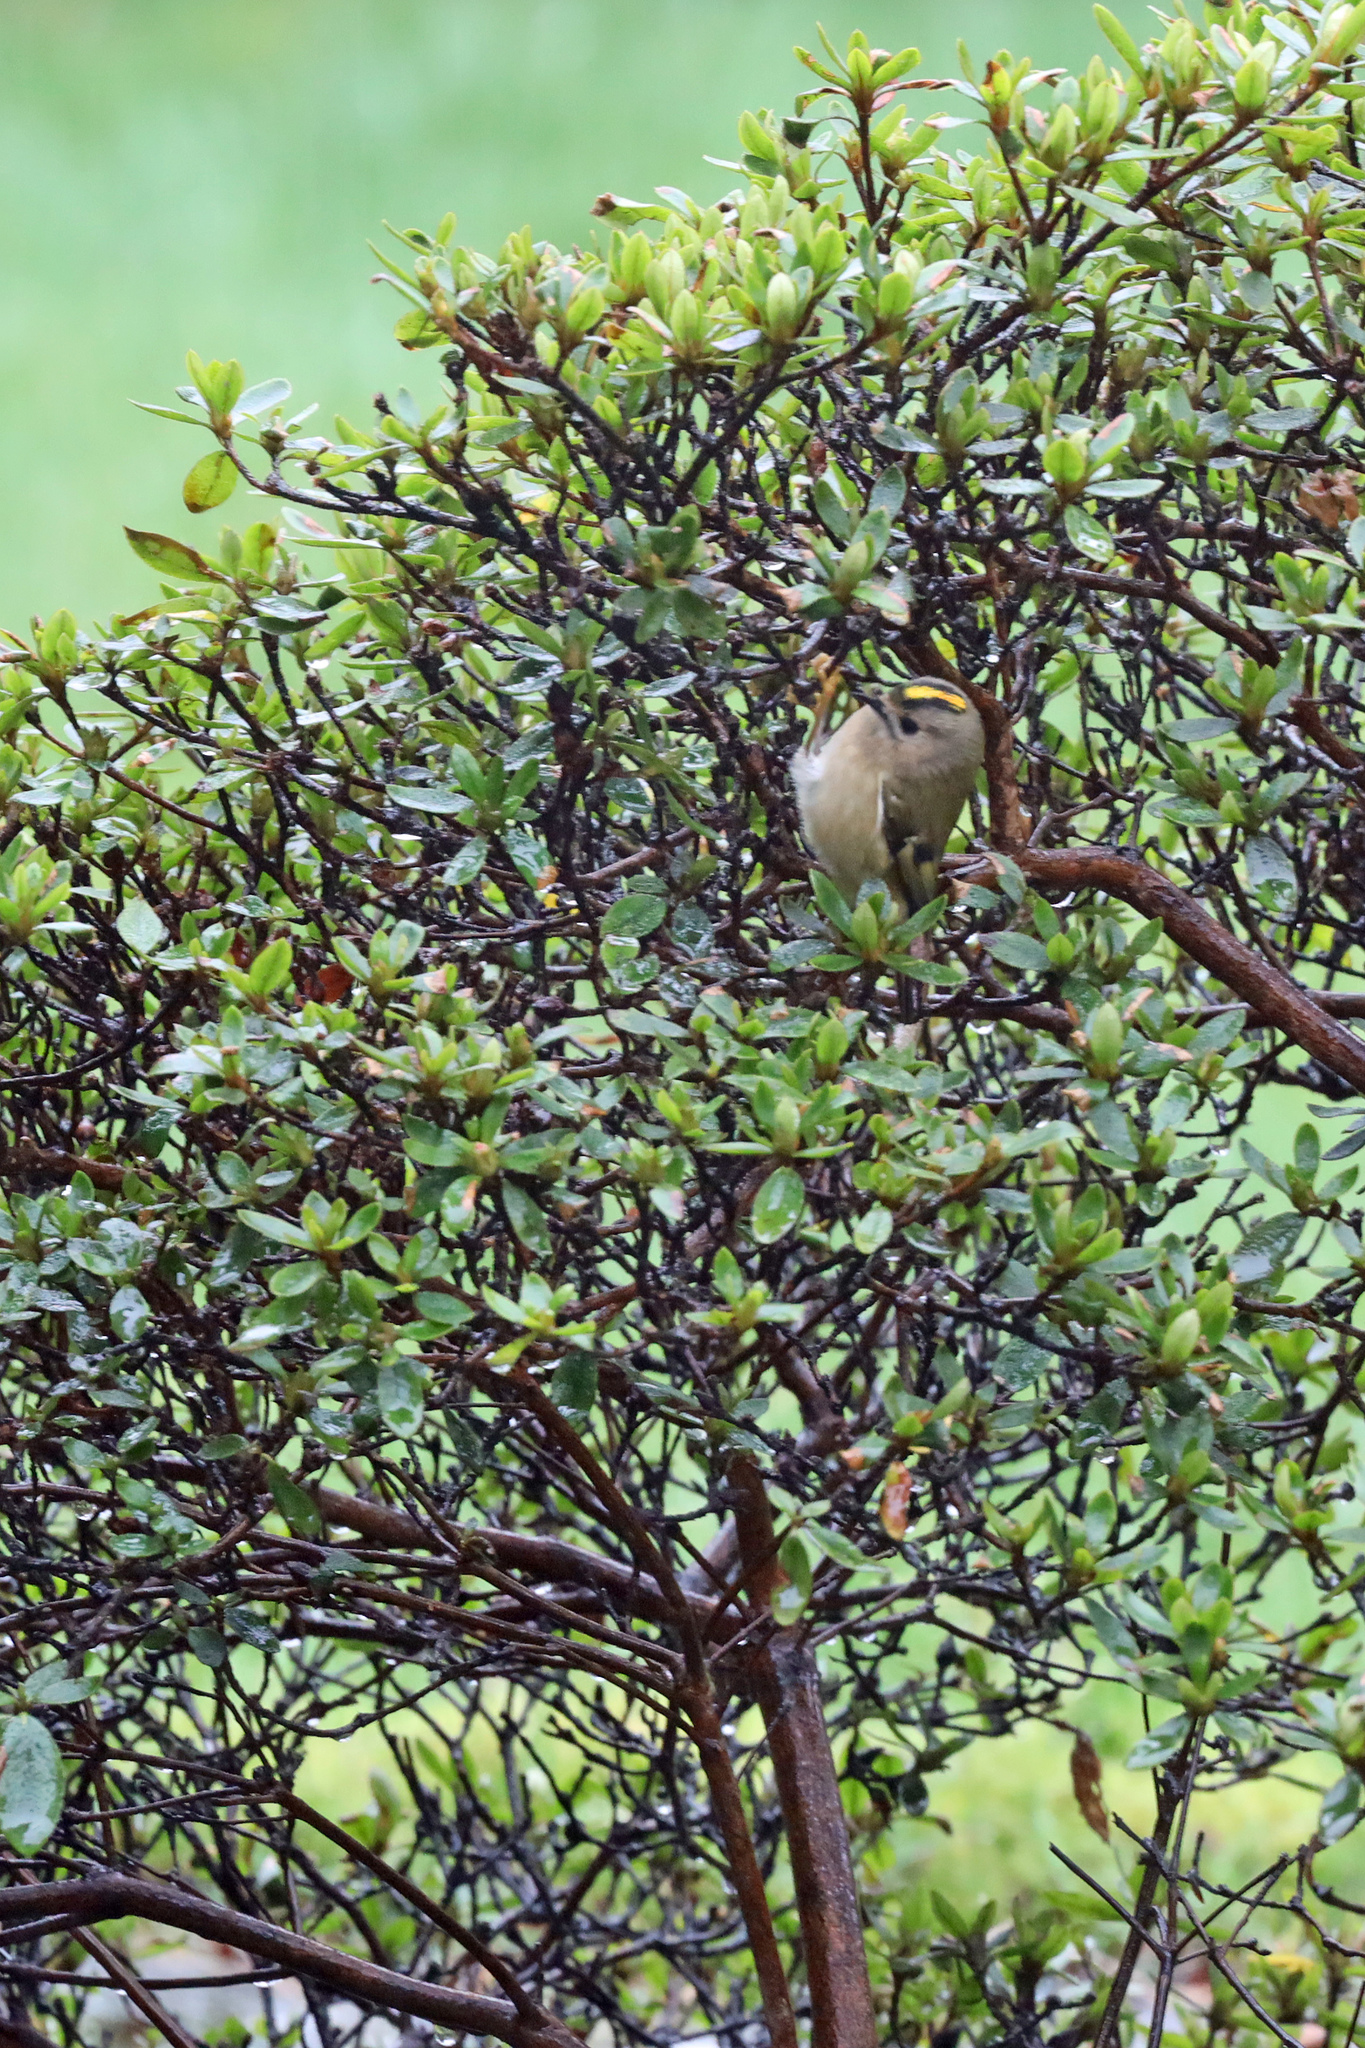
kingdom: Animalia
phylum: Chordata
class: Aves
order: Passeriformes
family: Regulidae
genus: Regulus
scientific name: Regulus regulus
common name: Goldcrest
